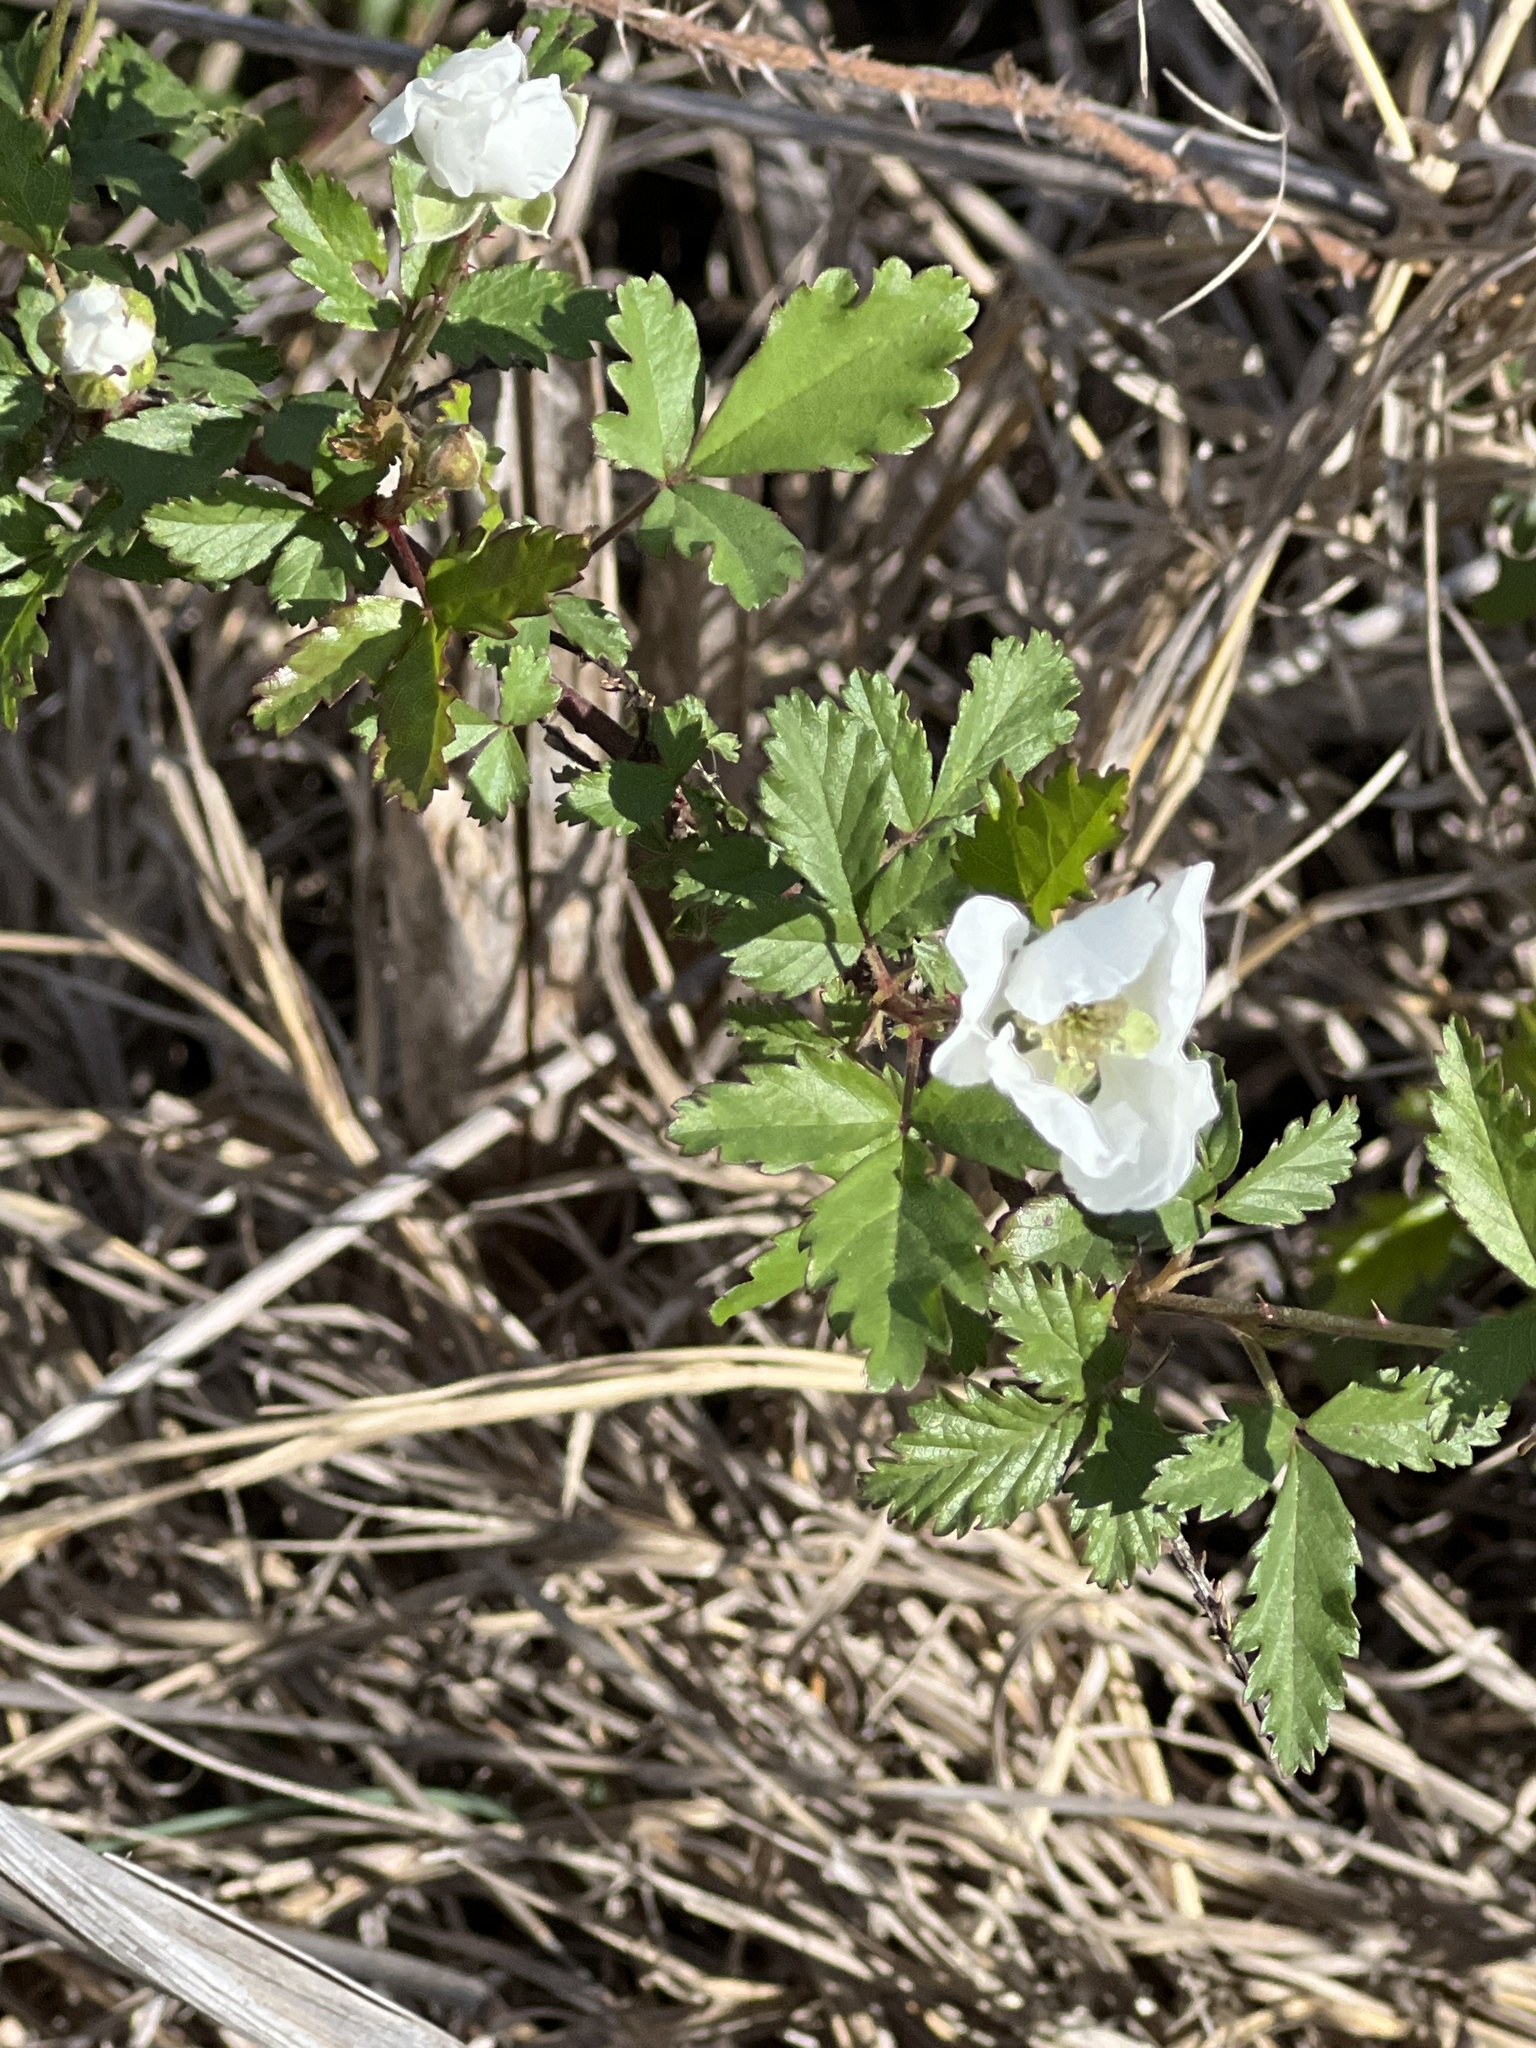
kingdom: Plantae
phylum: Tracheophyta
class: Magnoliopsida
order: Rosales
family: Rosaceae
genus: Rubus
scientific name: Rubus trivialis
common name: Southern dewberry
